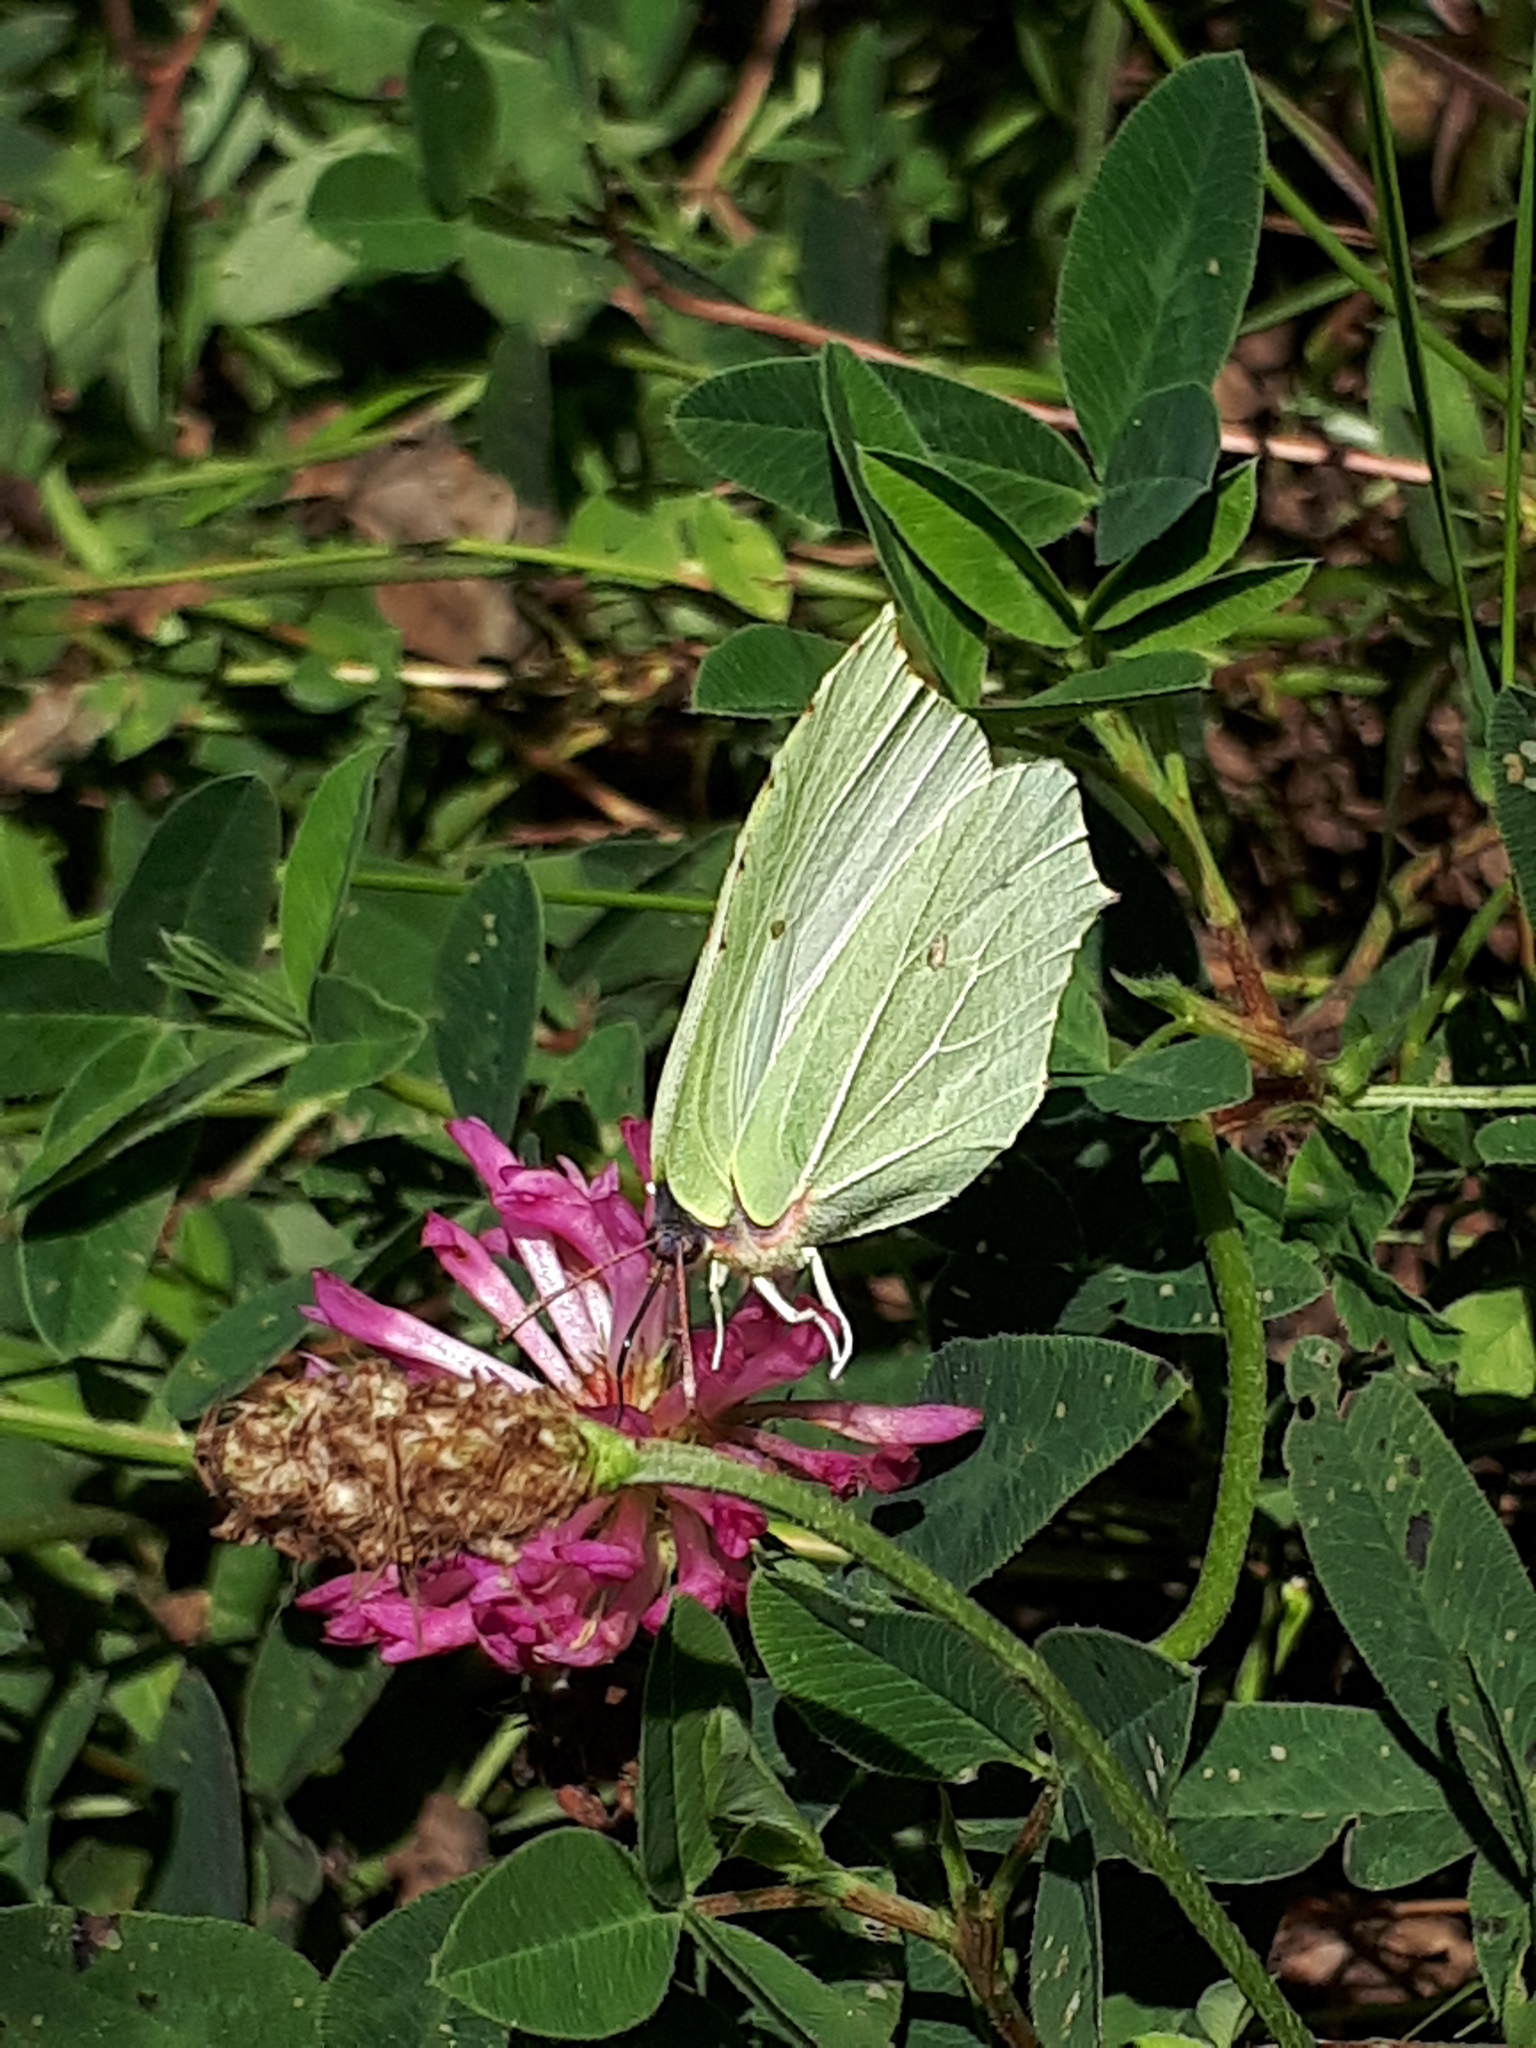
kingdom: Animalia
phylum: Arthropoda
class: Insecta
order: Lepidoptera
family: Pieridae
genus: Gonepteryx
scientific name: Gonepteryx rhamni
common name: Brimstone
